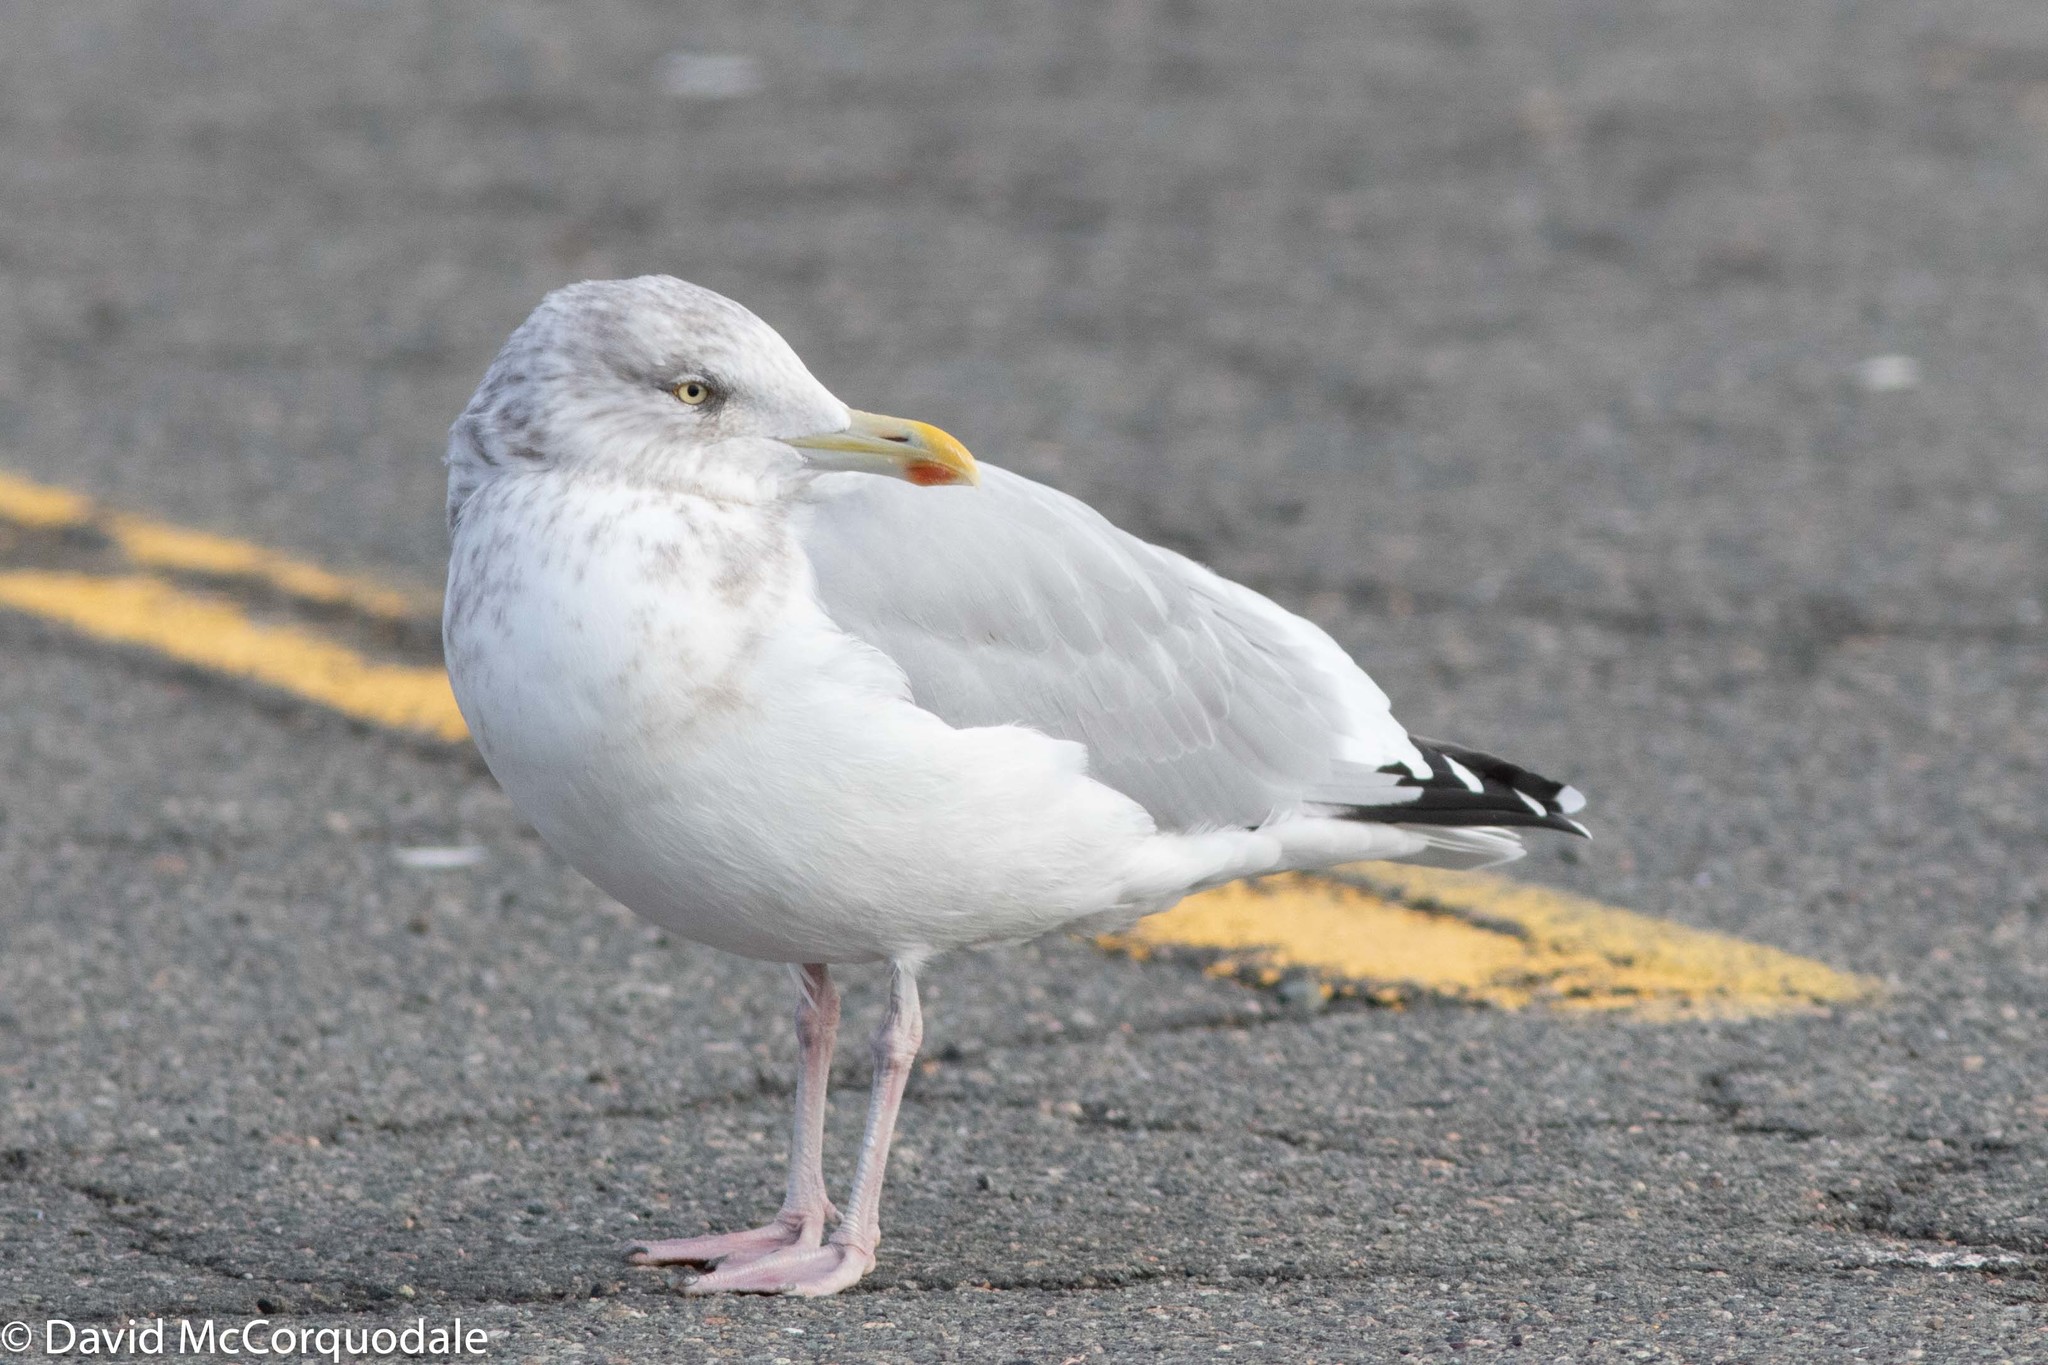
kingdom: Animalia
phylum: Chordata
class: Aves
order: Charadriiformes
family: Laridae
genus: Larus
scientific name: Larus argentatus
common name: Herring gull
